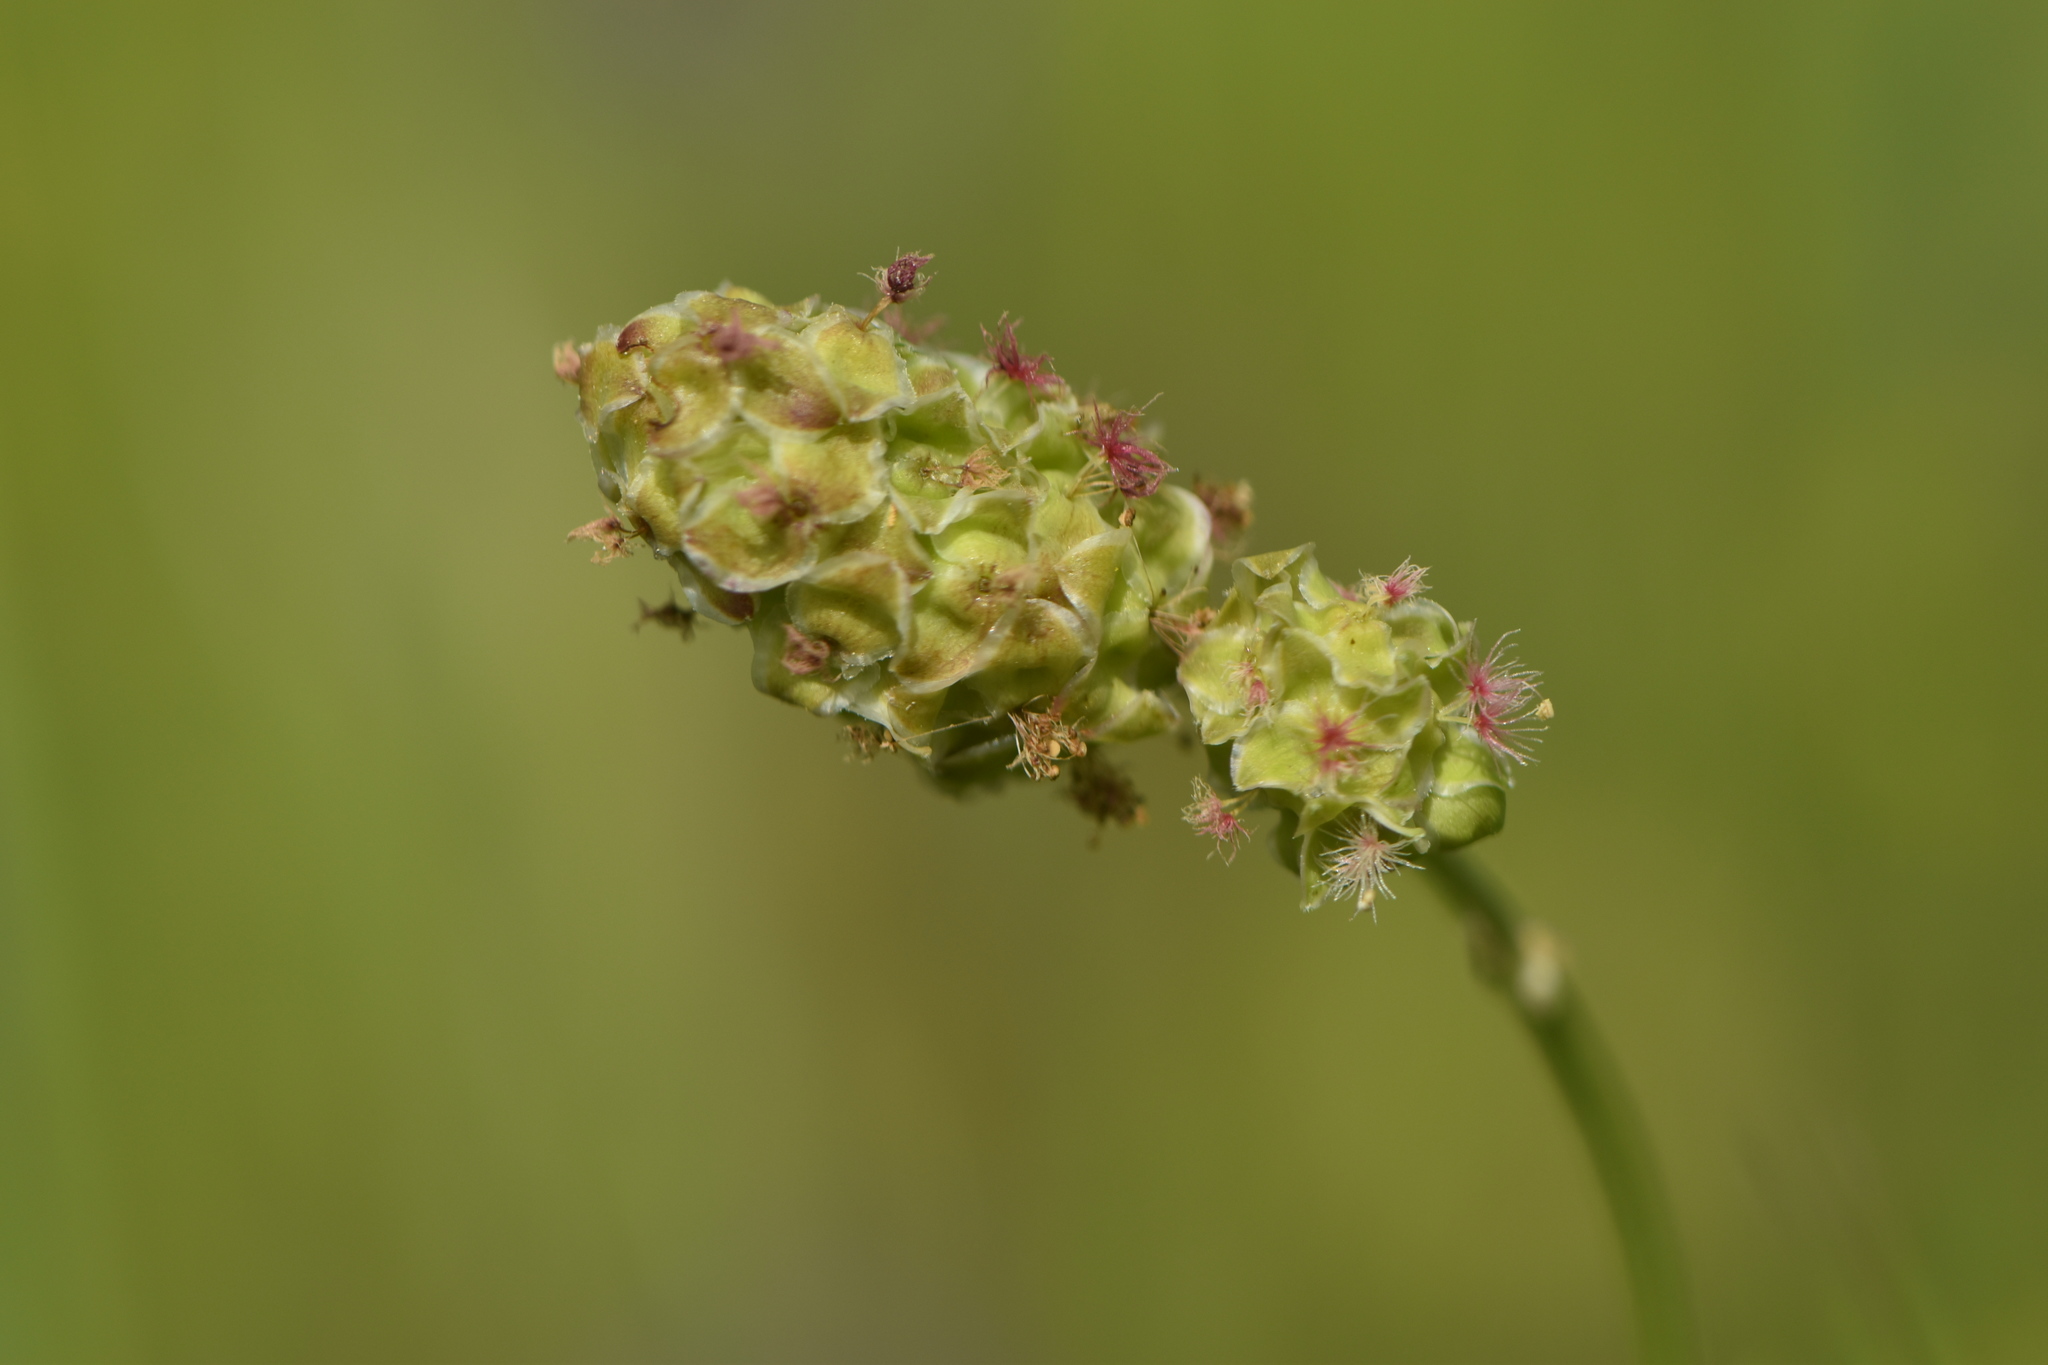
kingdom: Plantae
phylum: Tracheophyta
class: Magnoliopsida
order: Rosales
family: Rosaceae
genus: Poterium
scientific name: Poterium sanguisorba
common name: Salad burnet
